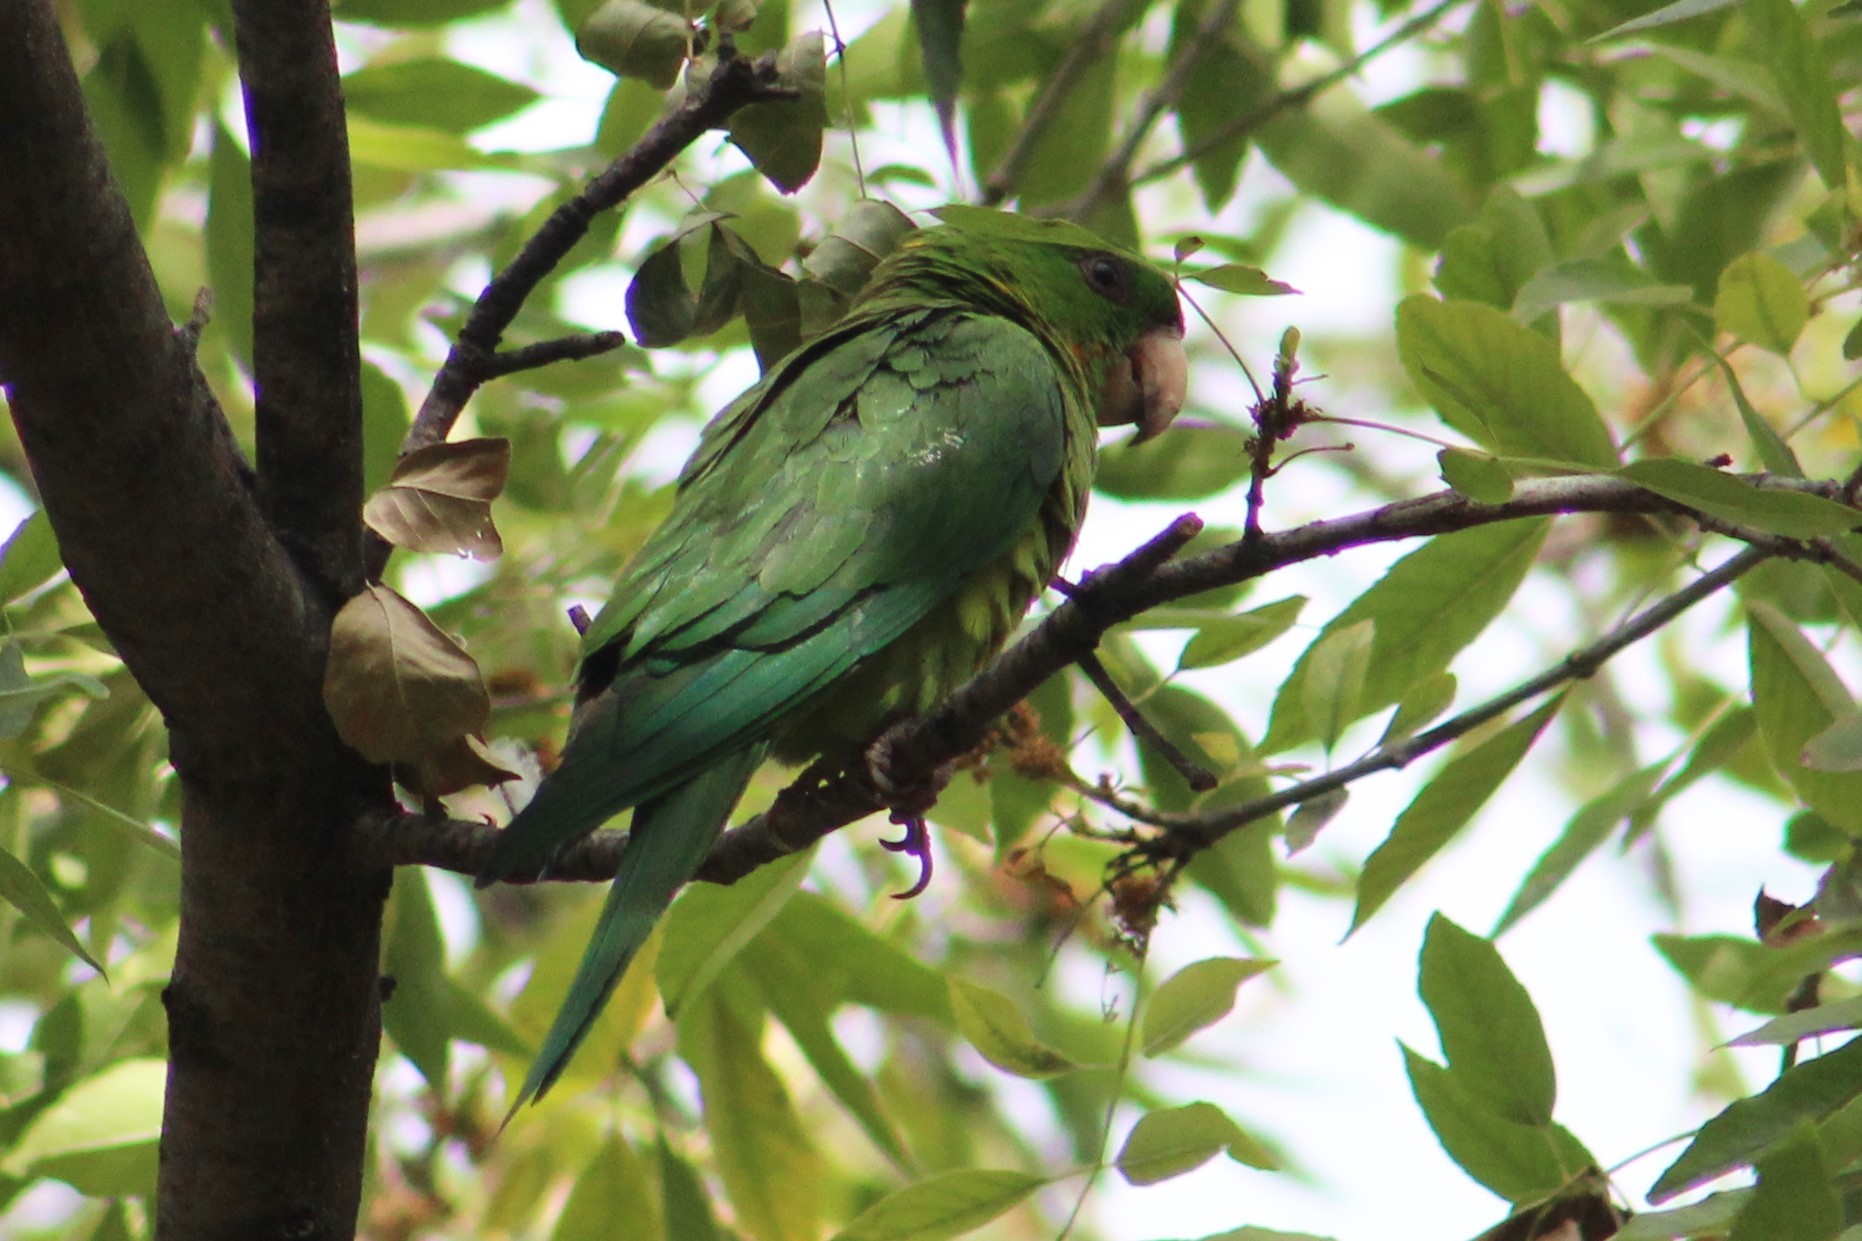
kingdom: Animalia
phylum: Chordata
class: Aves
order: Psittaciformes
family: Psittacidae
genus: Aratinga
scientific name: Aratinga holochlora
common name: Green parakeet
